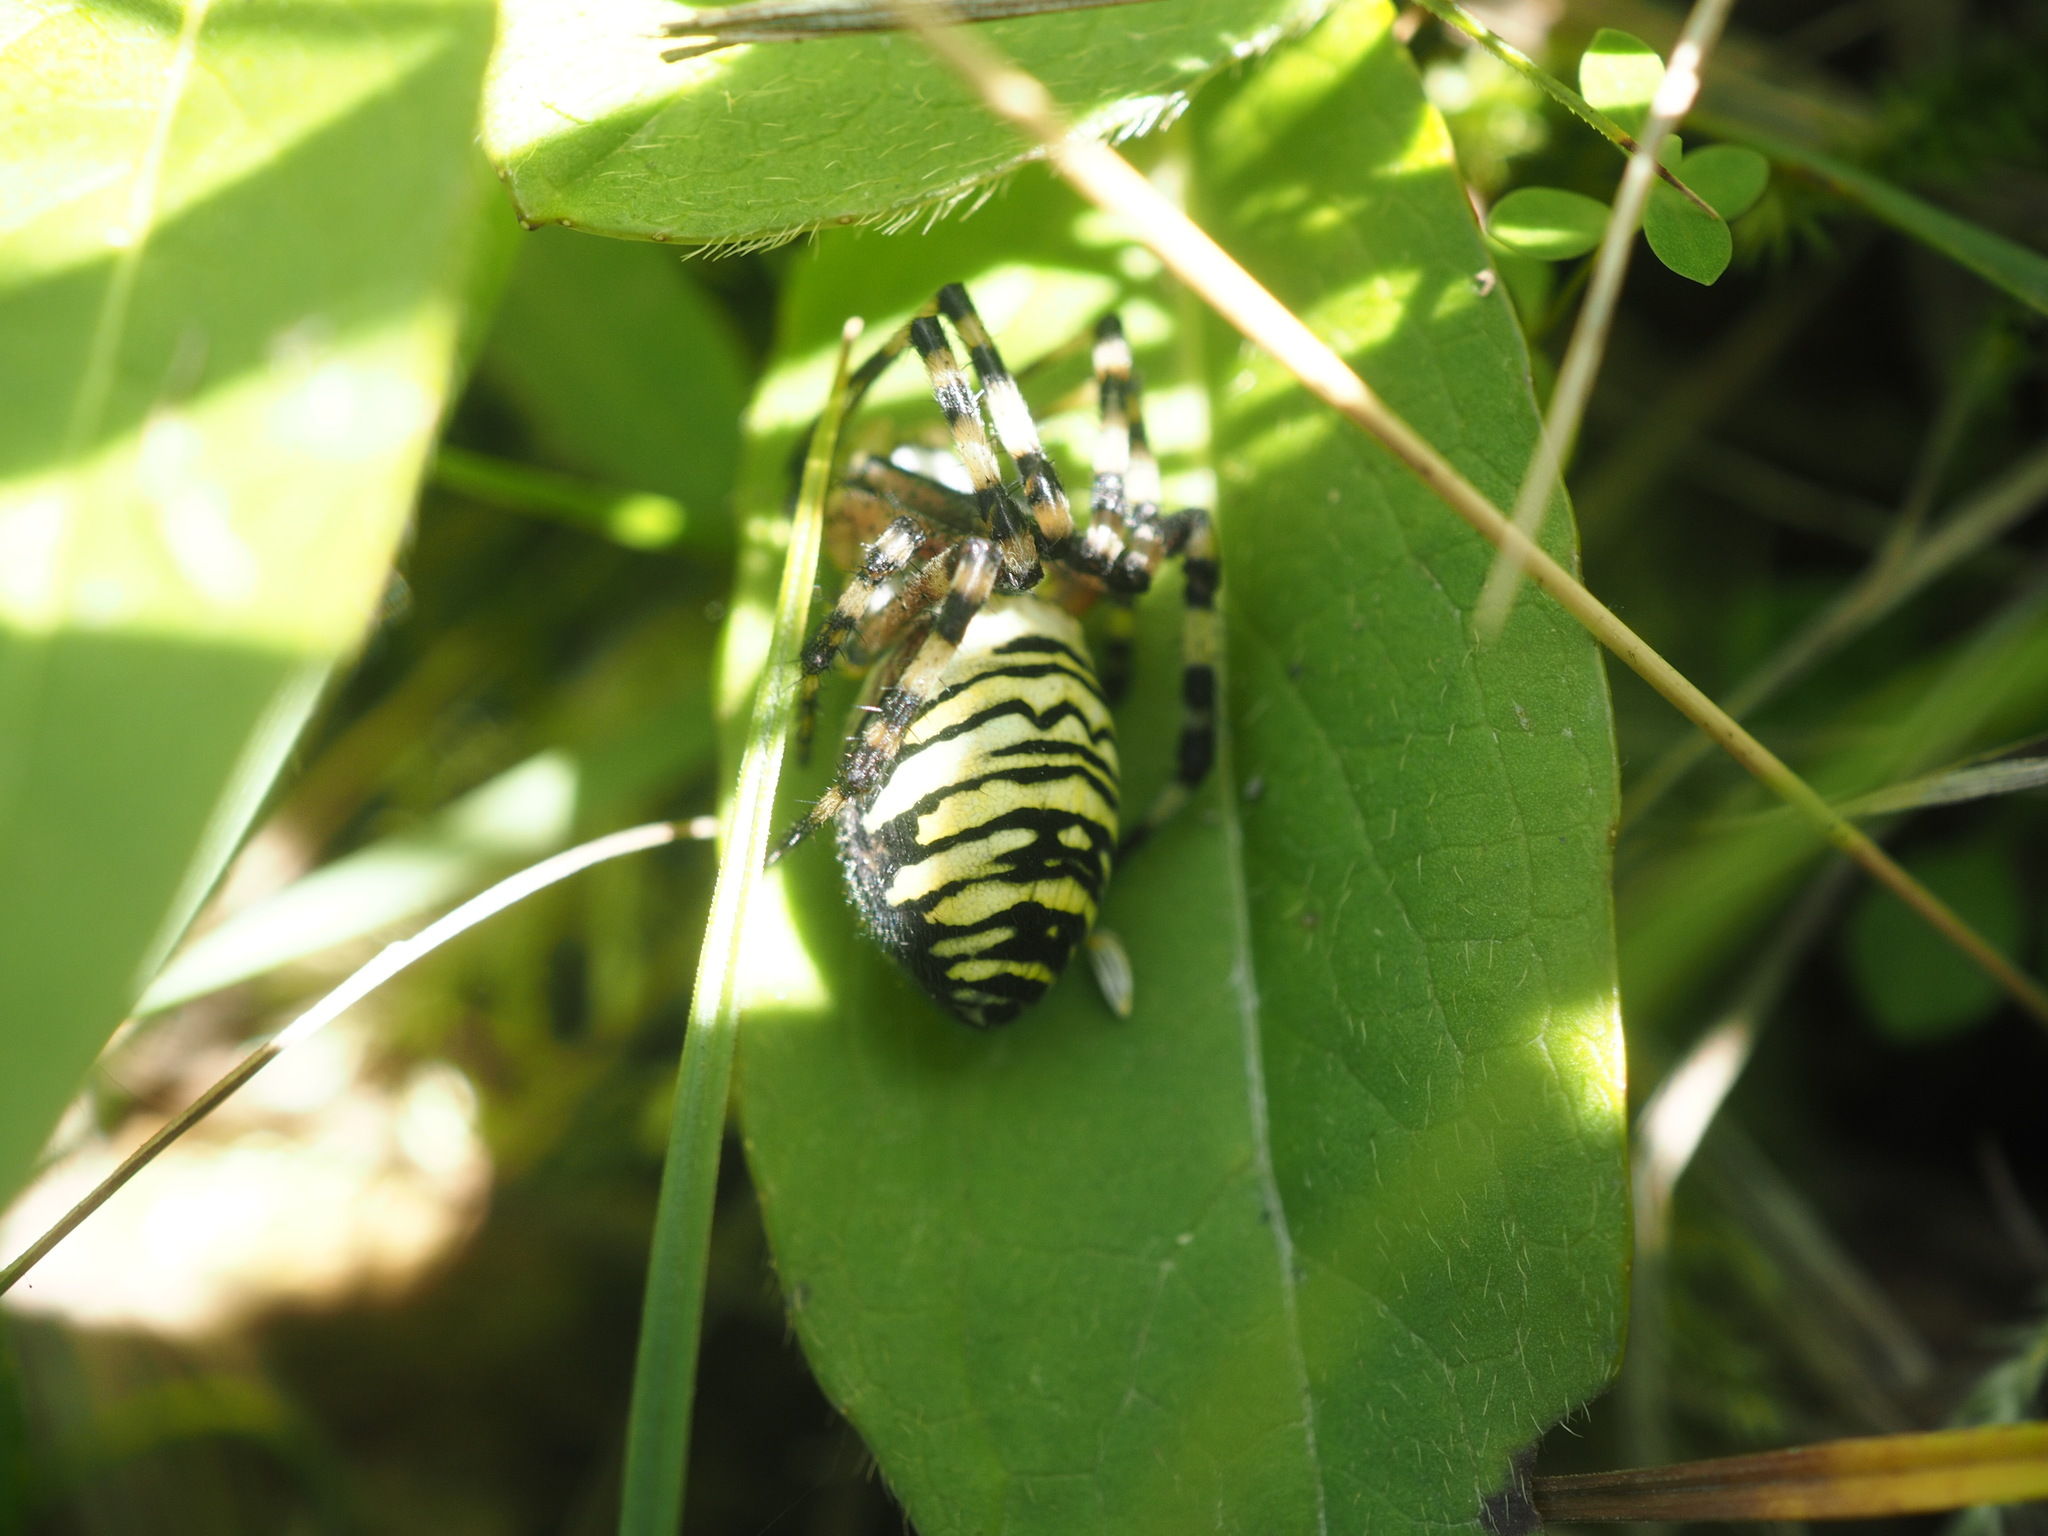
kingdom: Animalia
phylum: Arthropoda
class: Arachnida
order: Araneae
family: Araneidae
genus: Argiope
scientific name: Argiope bruennichi
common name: Wasp spider
